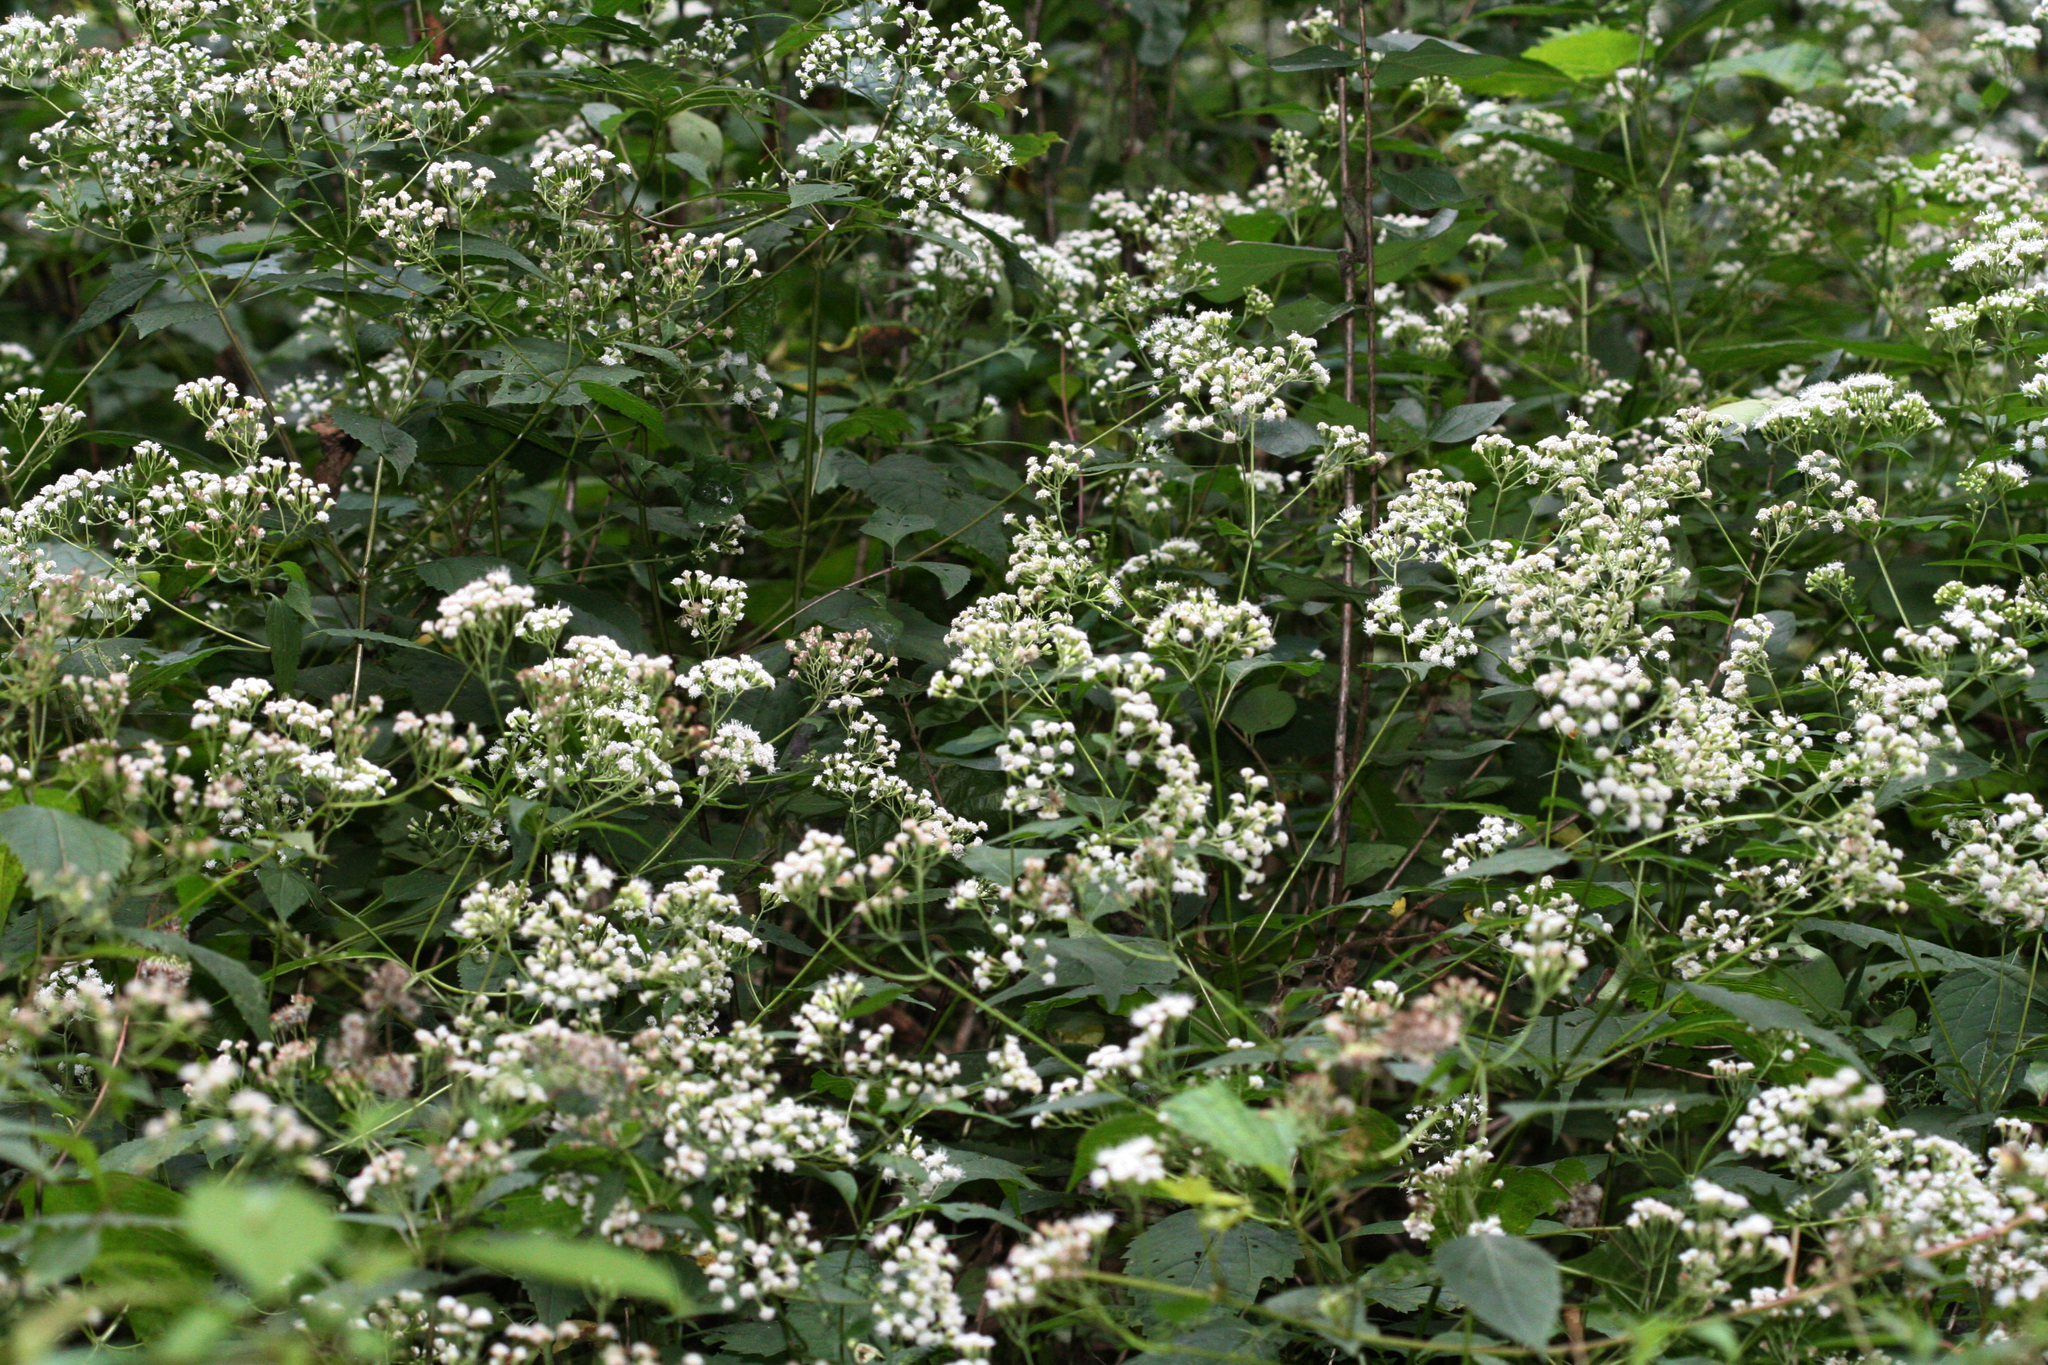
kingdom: Plantae
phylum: Tracheophyta
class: Magnoliopsida
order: Asterales
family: Asteraceae
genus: Ageratina
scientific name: Ageratina altissima
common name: White snakeroot
